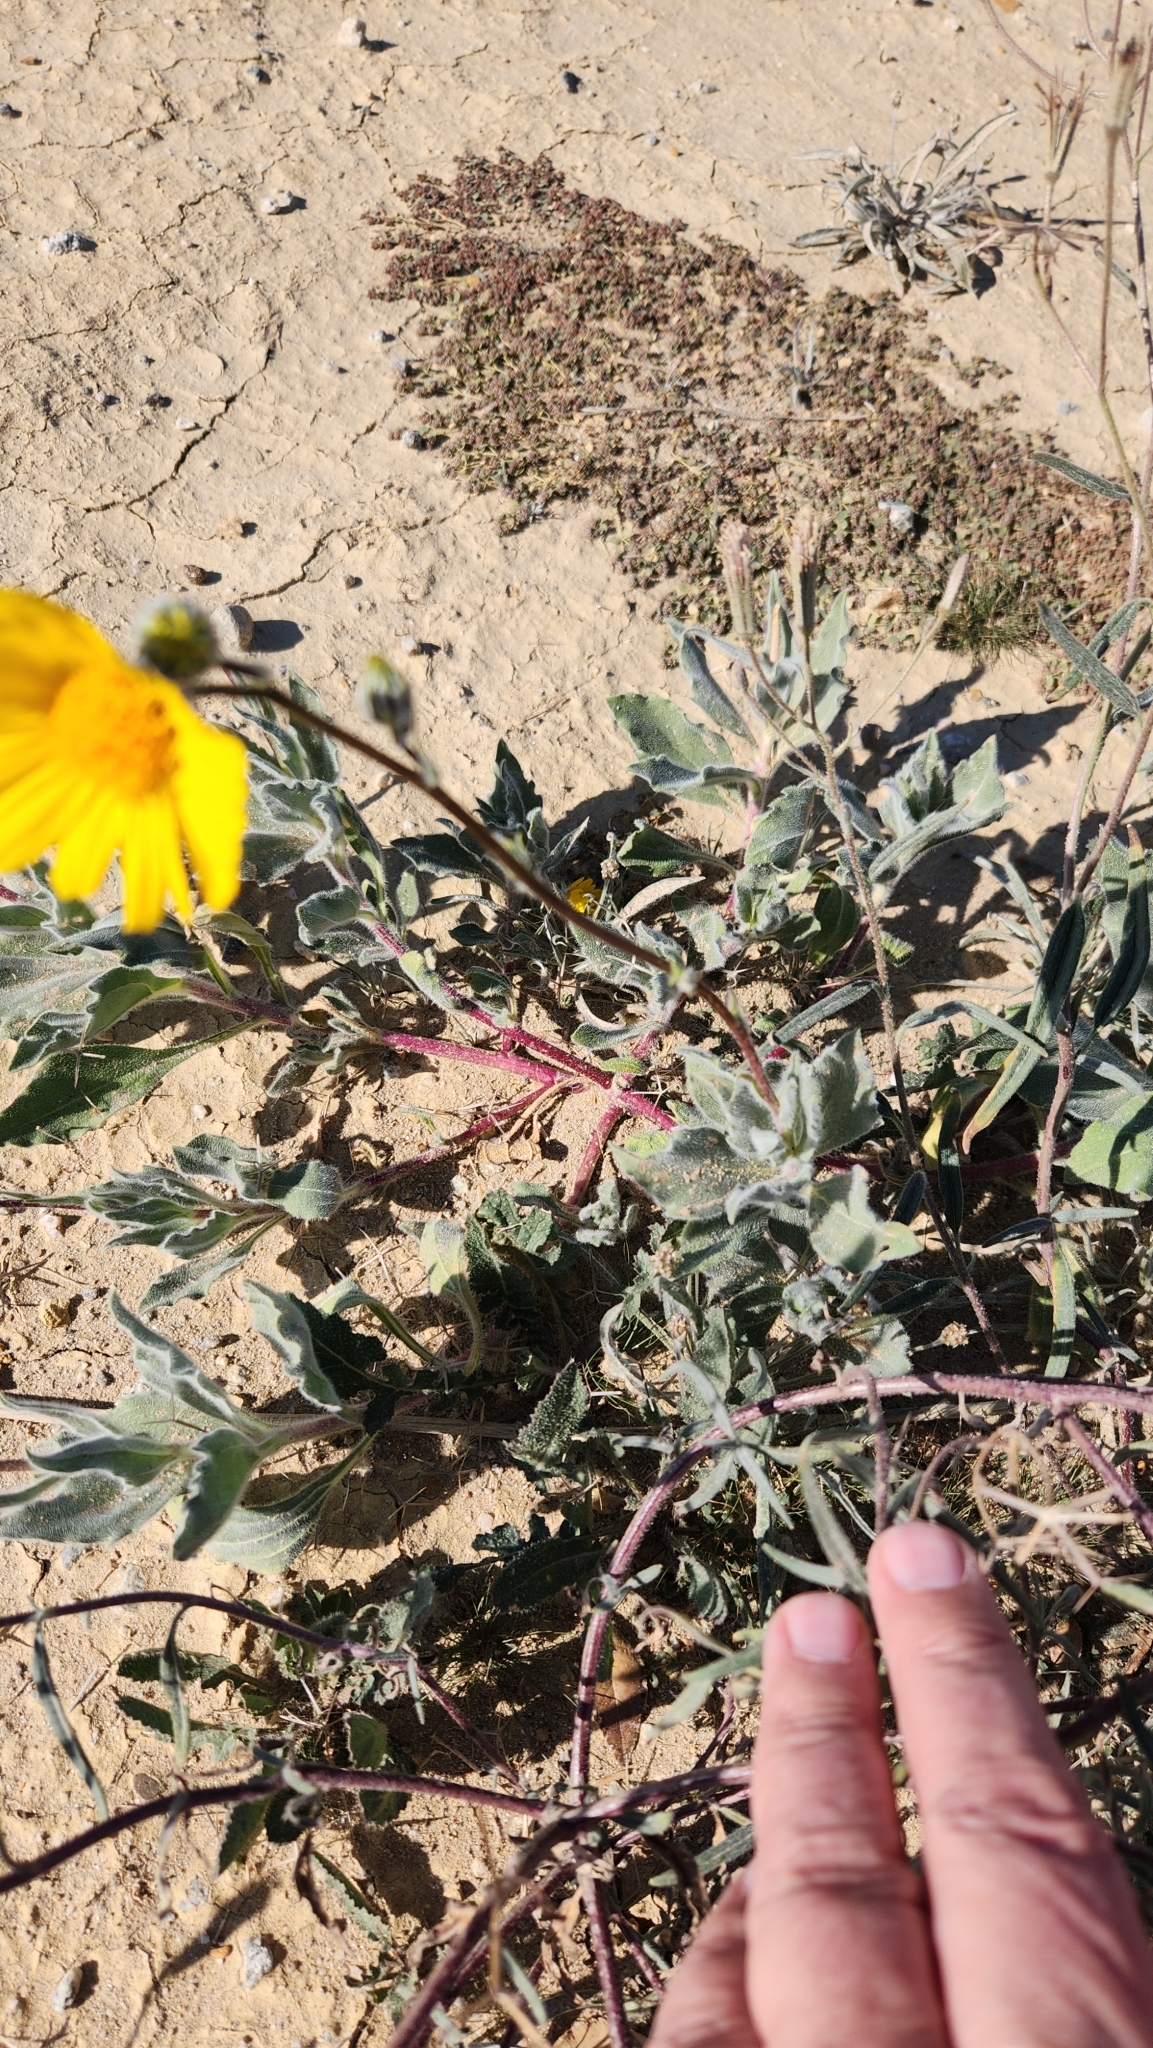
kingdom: Plantae
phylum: Tracheophyta
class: Magnoliopsida
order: Asterales
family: Asteraceae
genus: Geraea
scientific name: Geraea canescens
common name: Desert-gold
